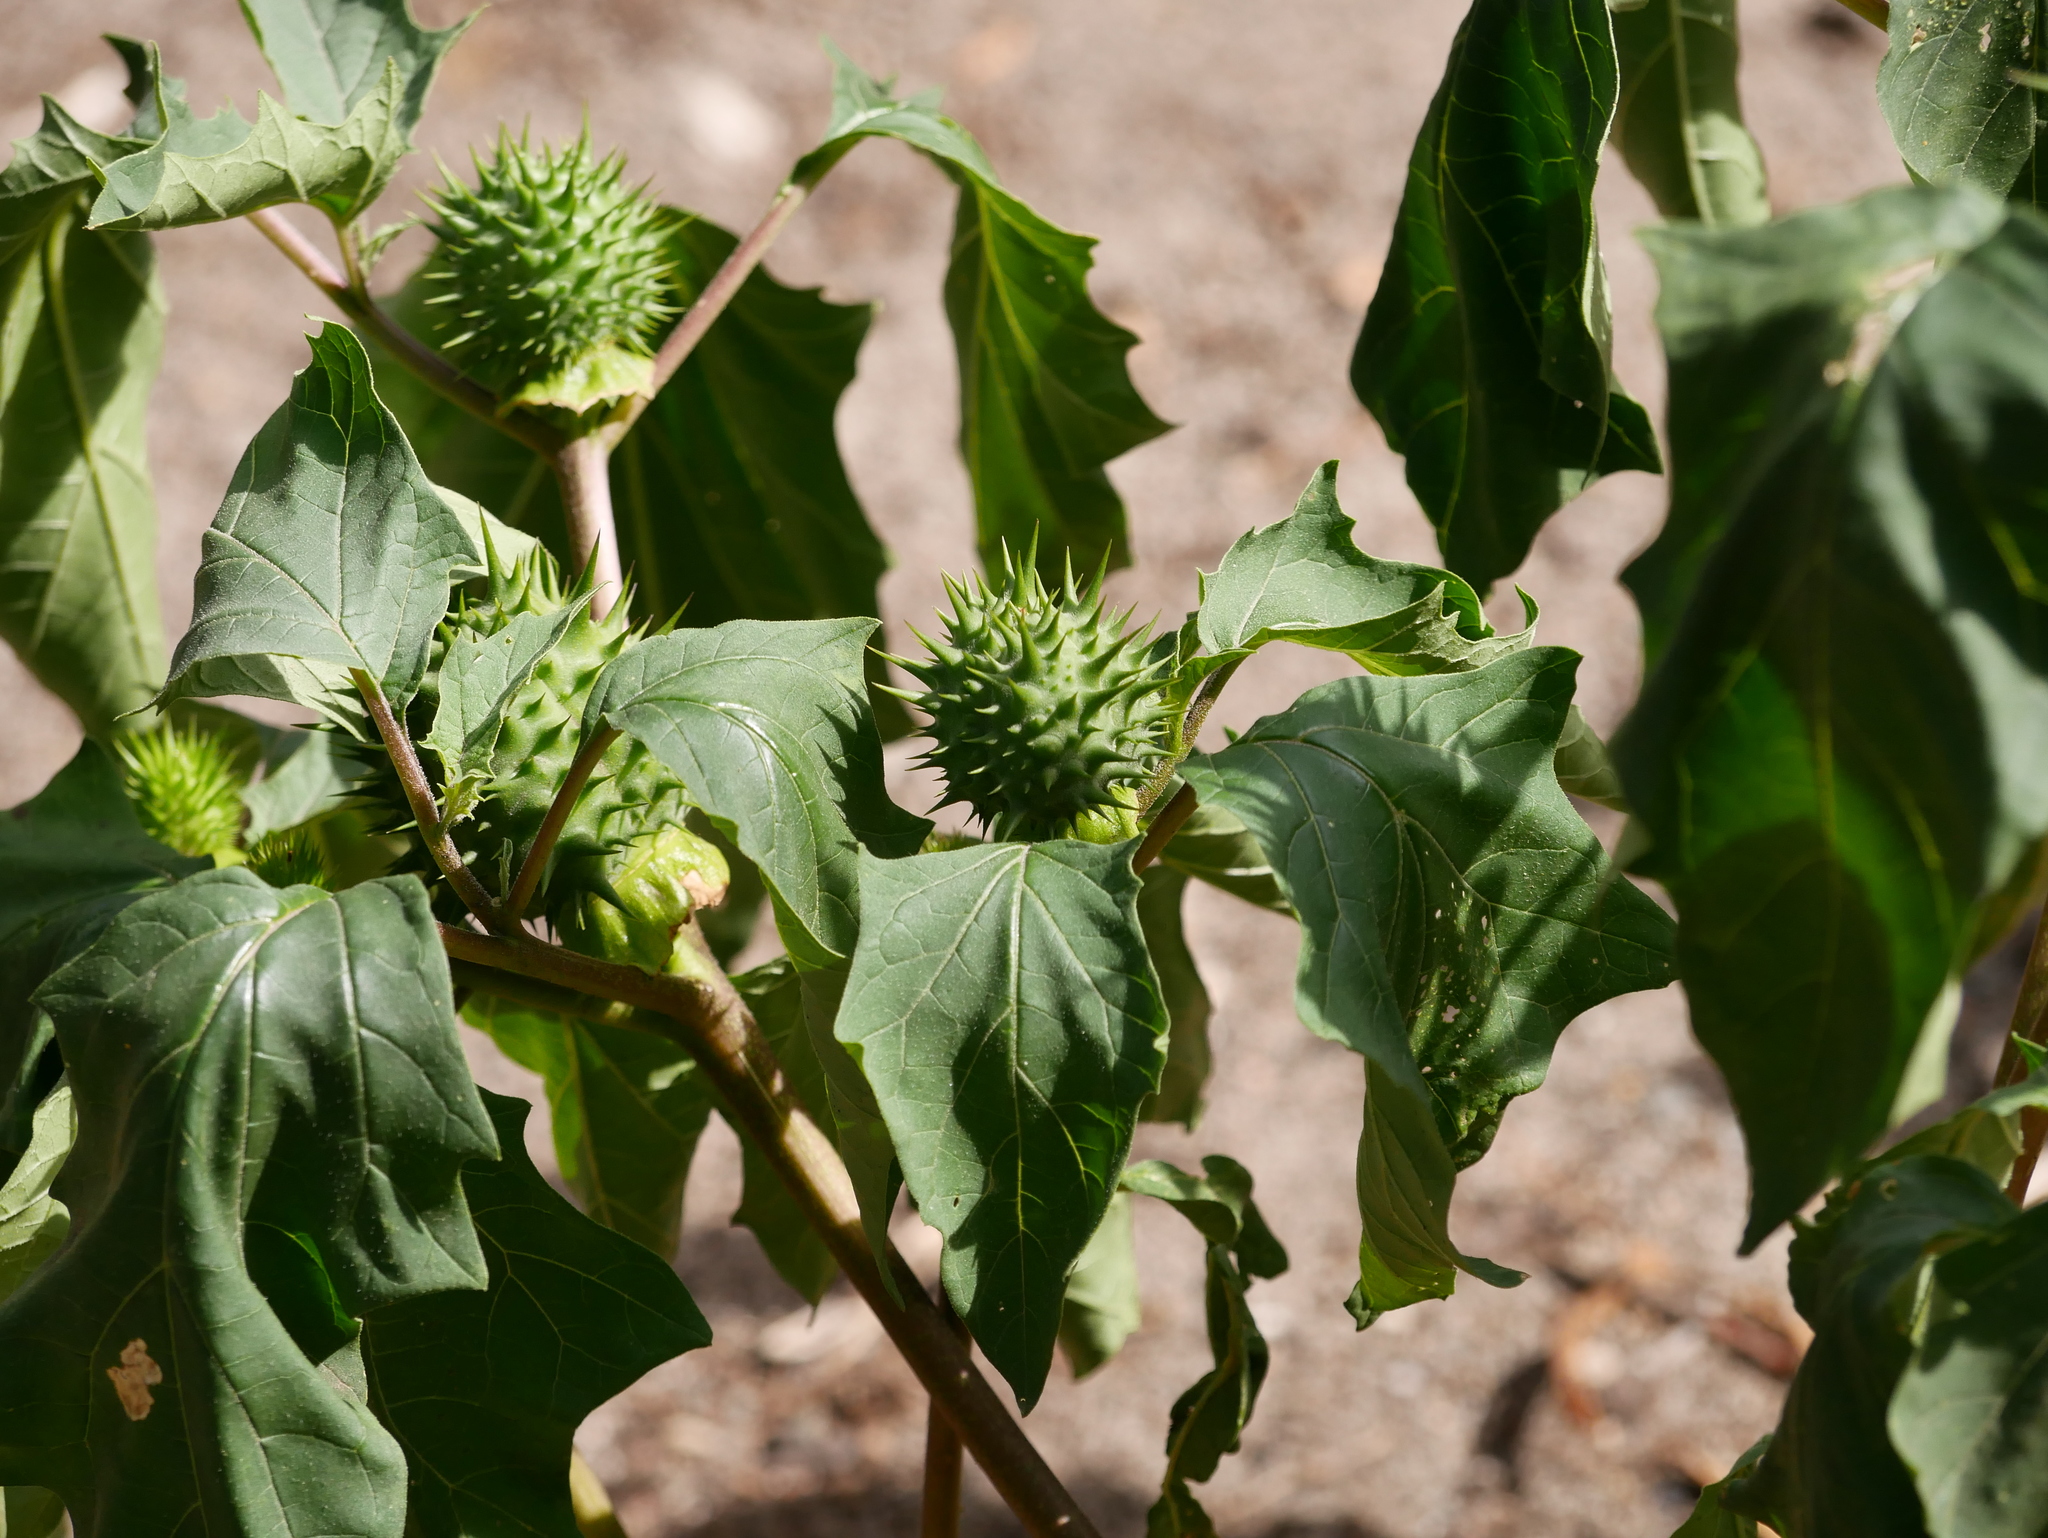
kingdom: Plantae
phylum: Tracheophyta
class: Magnoliopsida
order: Solanales
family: Solanaceae
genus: Datura
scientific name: Datura stramonium
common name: Thorn-apple
